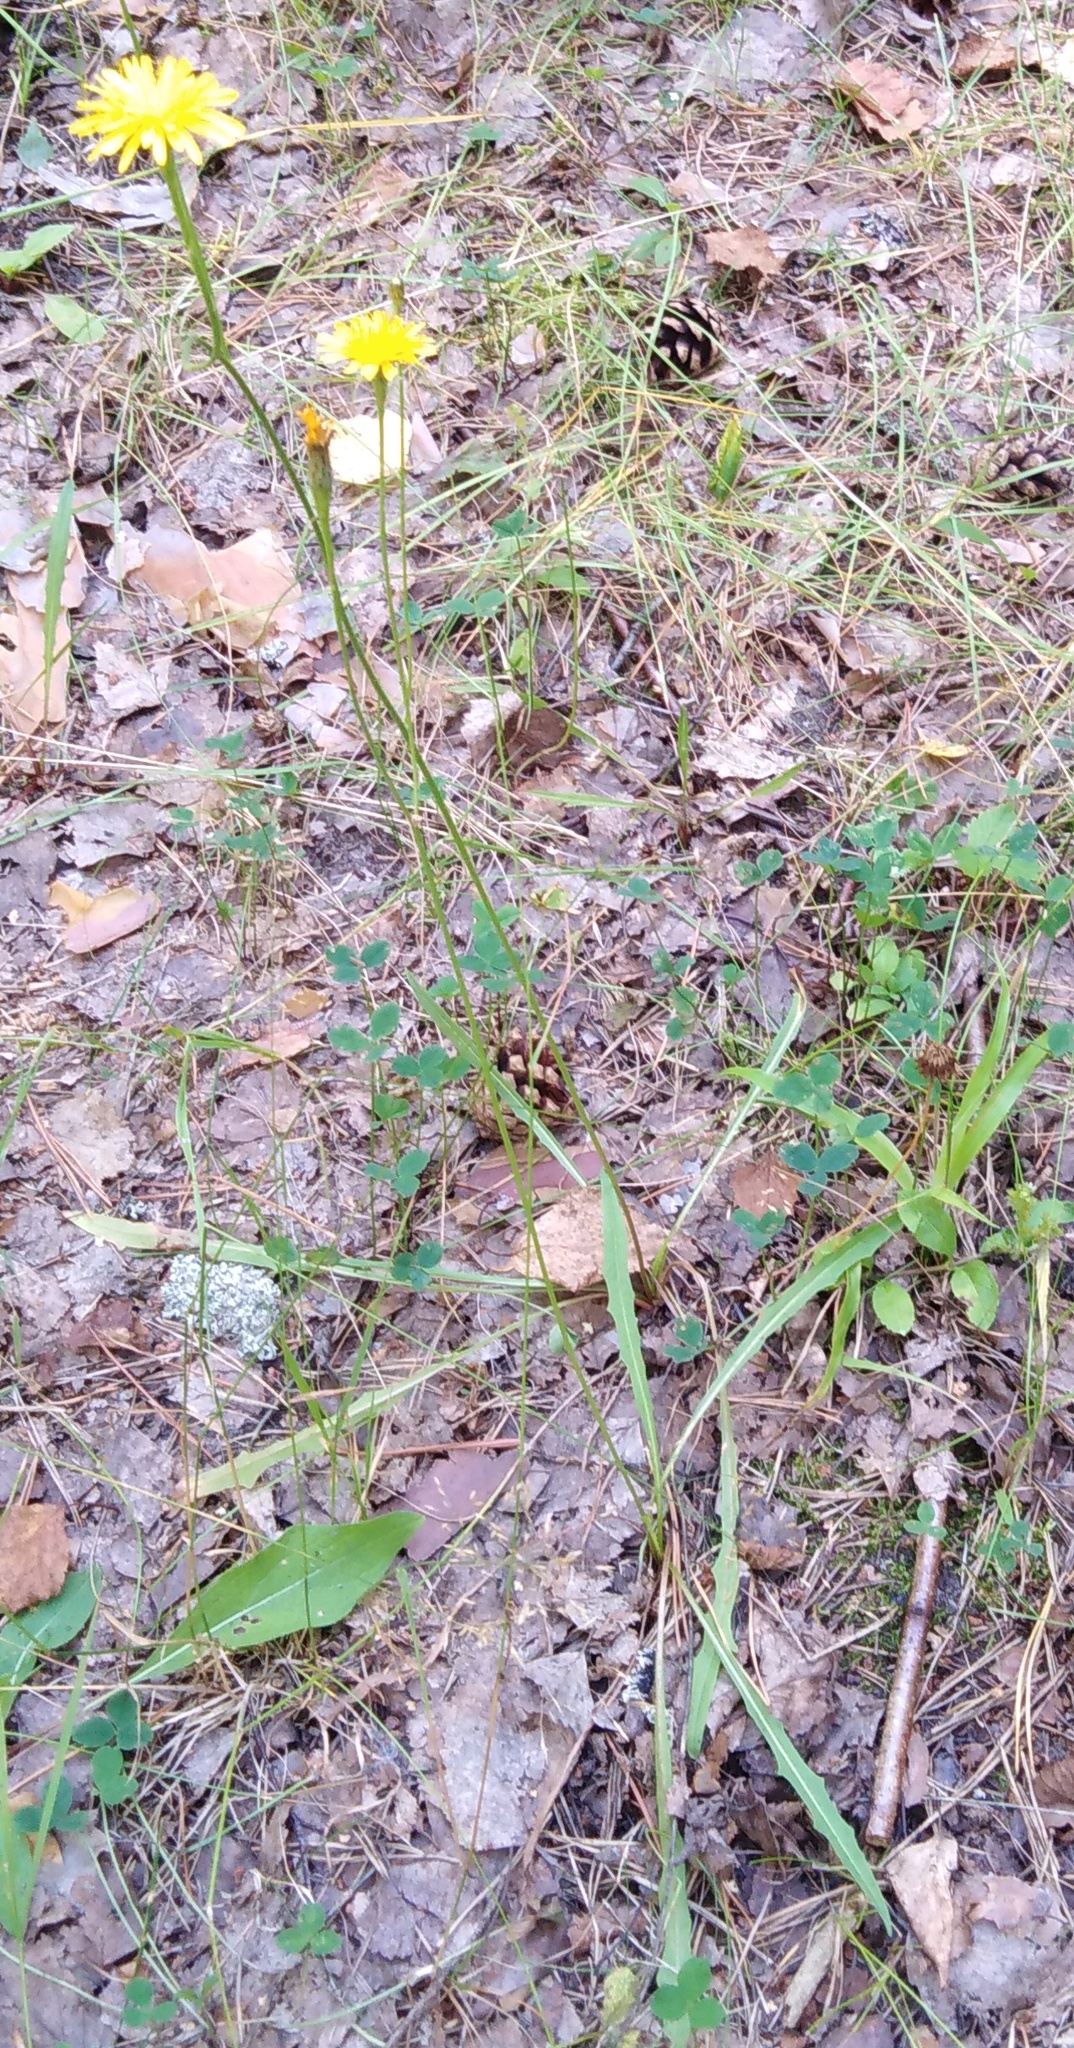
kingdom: Plantae
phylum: Tracheophyta
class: Magnoliopsida
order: Asterales
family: Asteraceae
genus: Scorzoneroides
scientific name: Scorzoneroides autumnalis
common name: Autumn hawkbit
